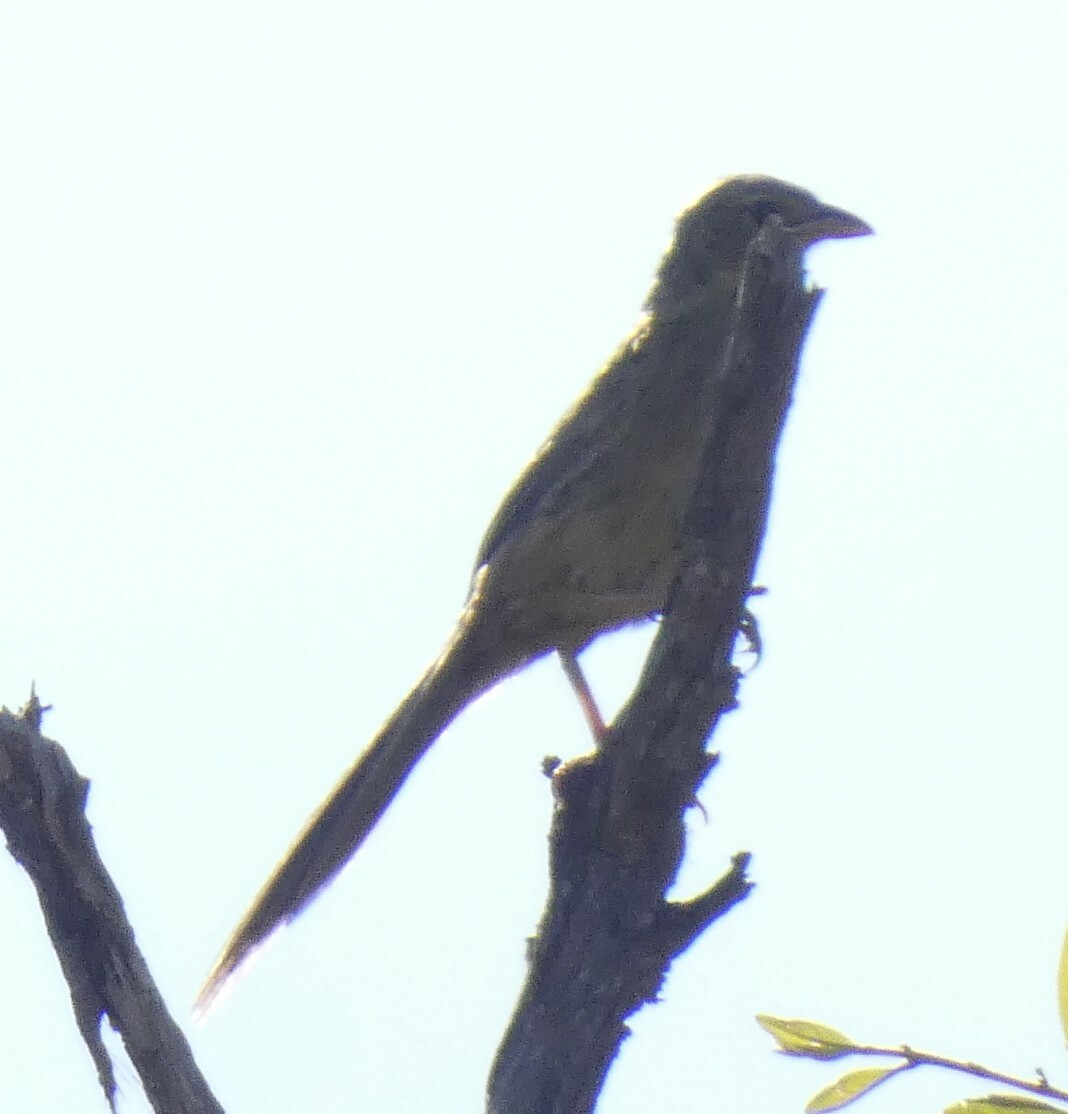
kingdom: Animalia
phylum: Chordata
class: Aves
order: Passeriformes
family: Thraupidae
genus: Emberizoides
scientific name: Emberizoides herbicola
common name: Wedge-tailed grass-finch
